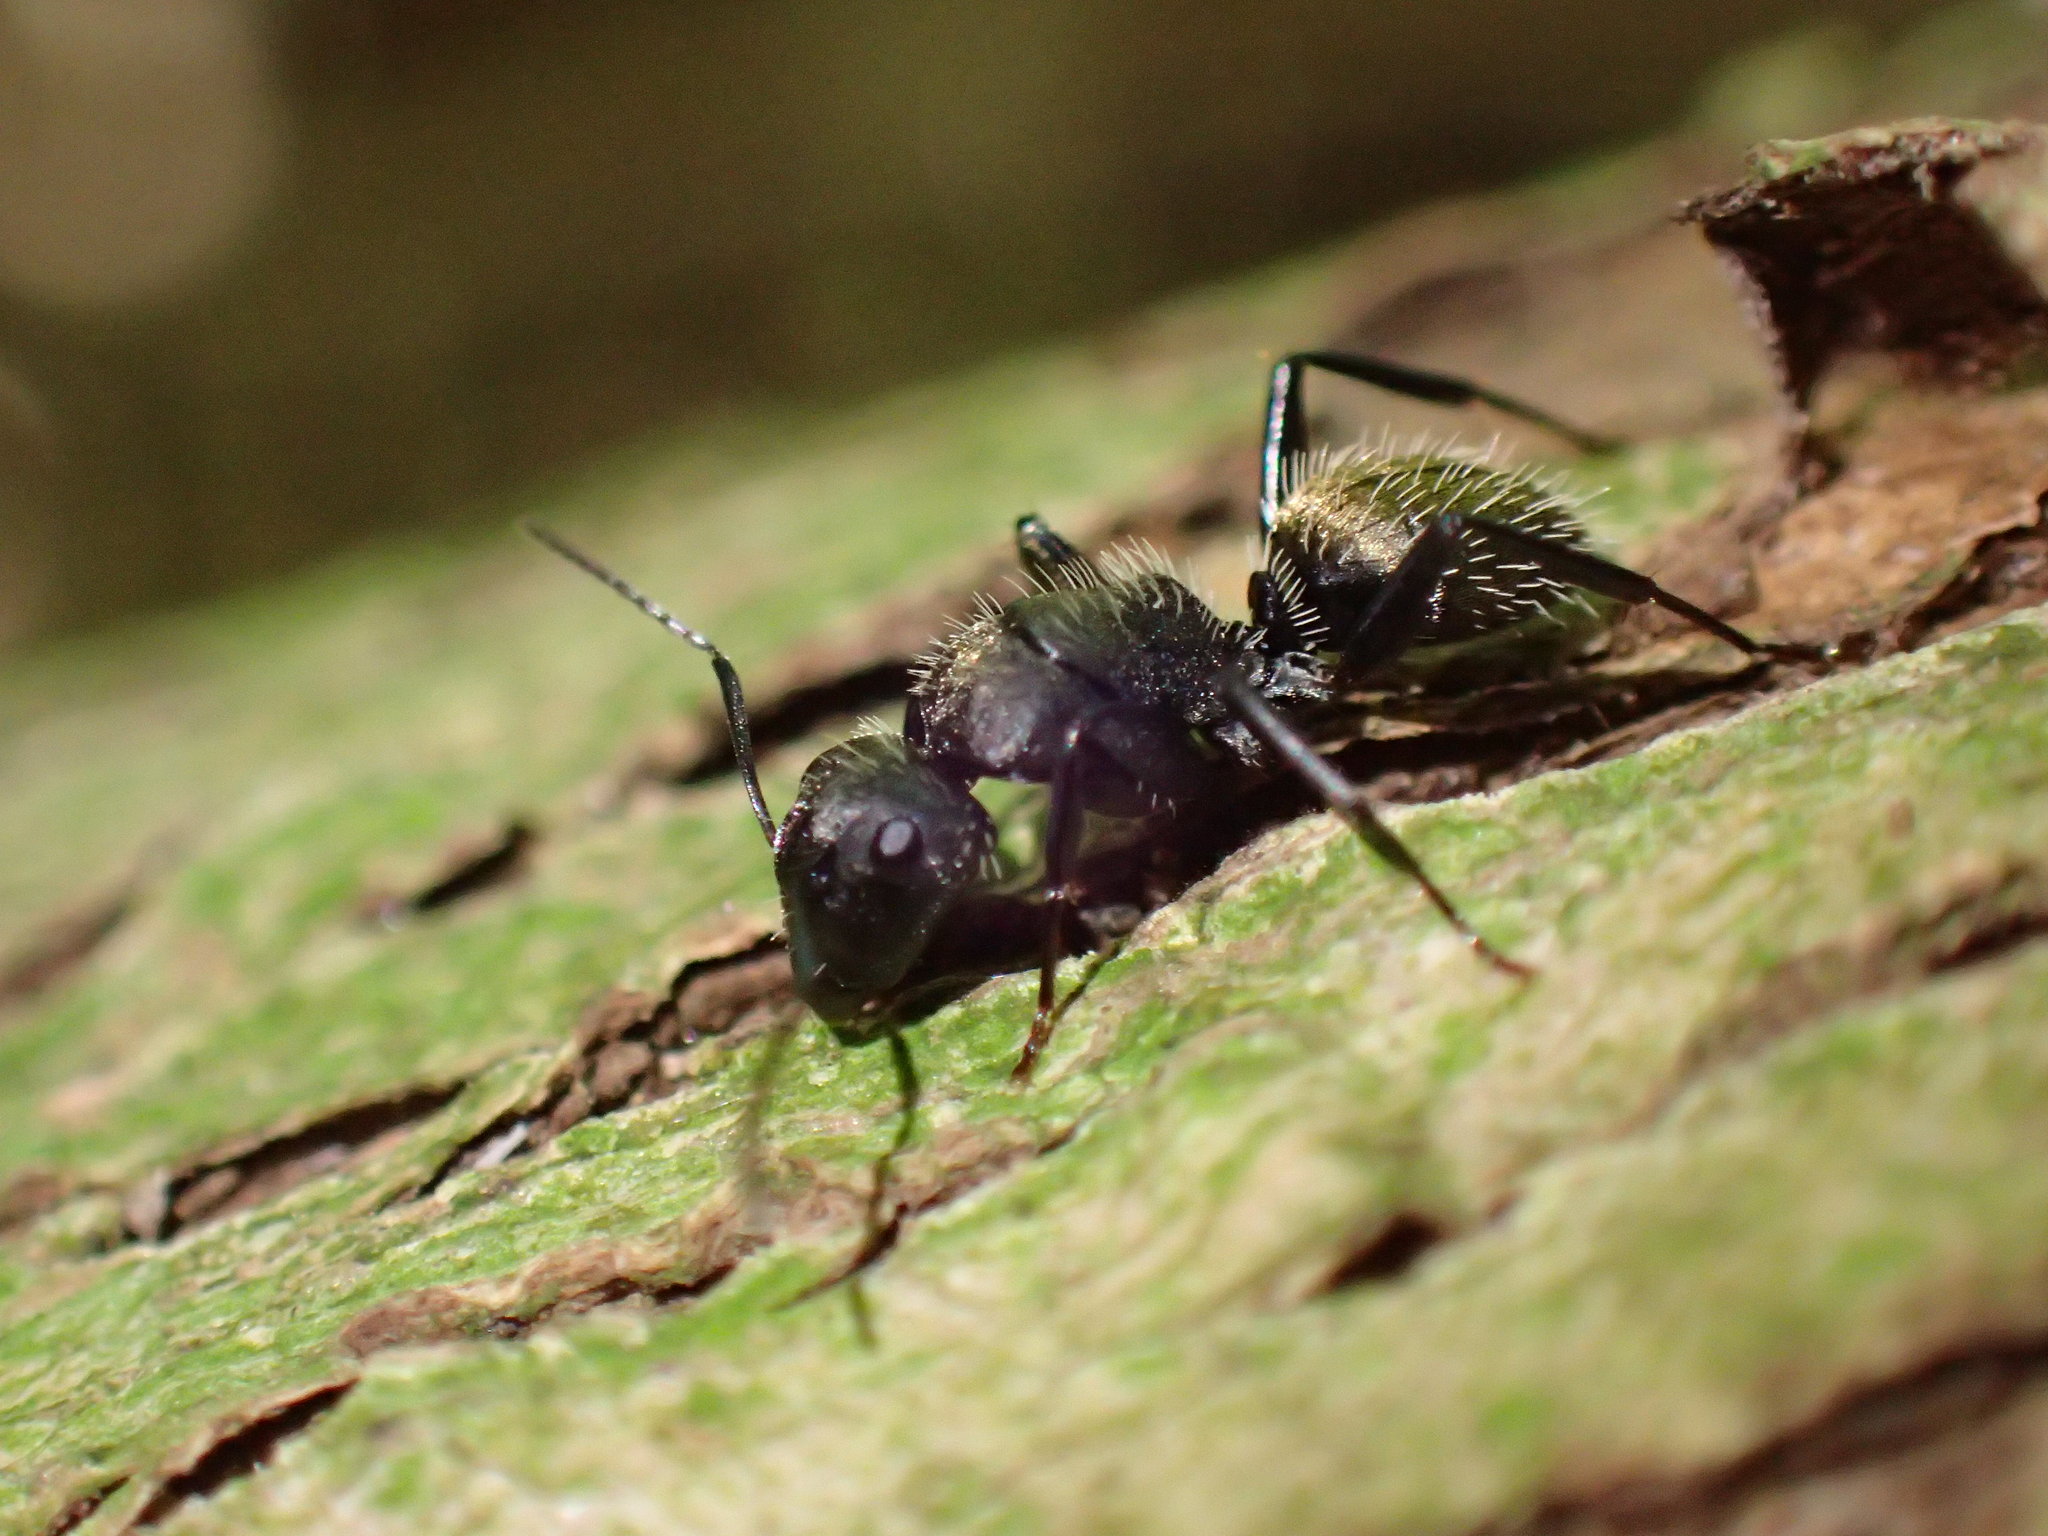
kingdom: Animalia
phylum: Arthropoda
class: Insecta
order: Hymenoptera
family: Formicidae
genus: Camponotus
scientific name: Camponotus postoculatus
